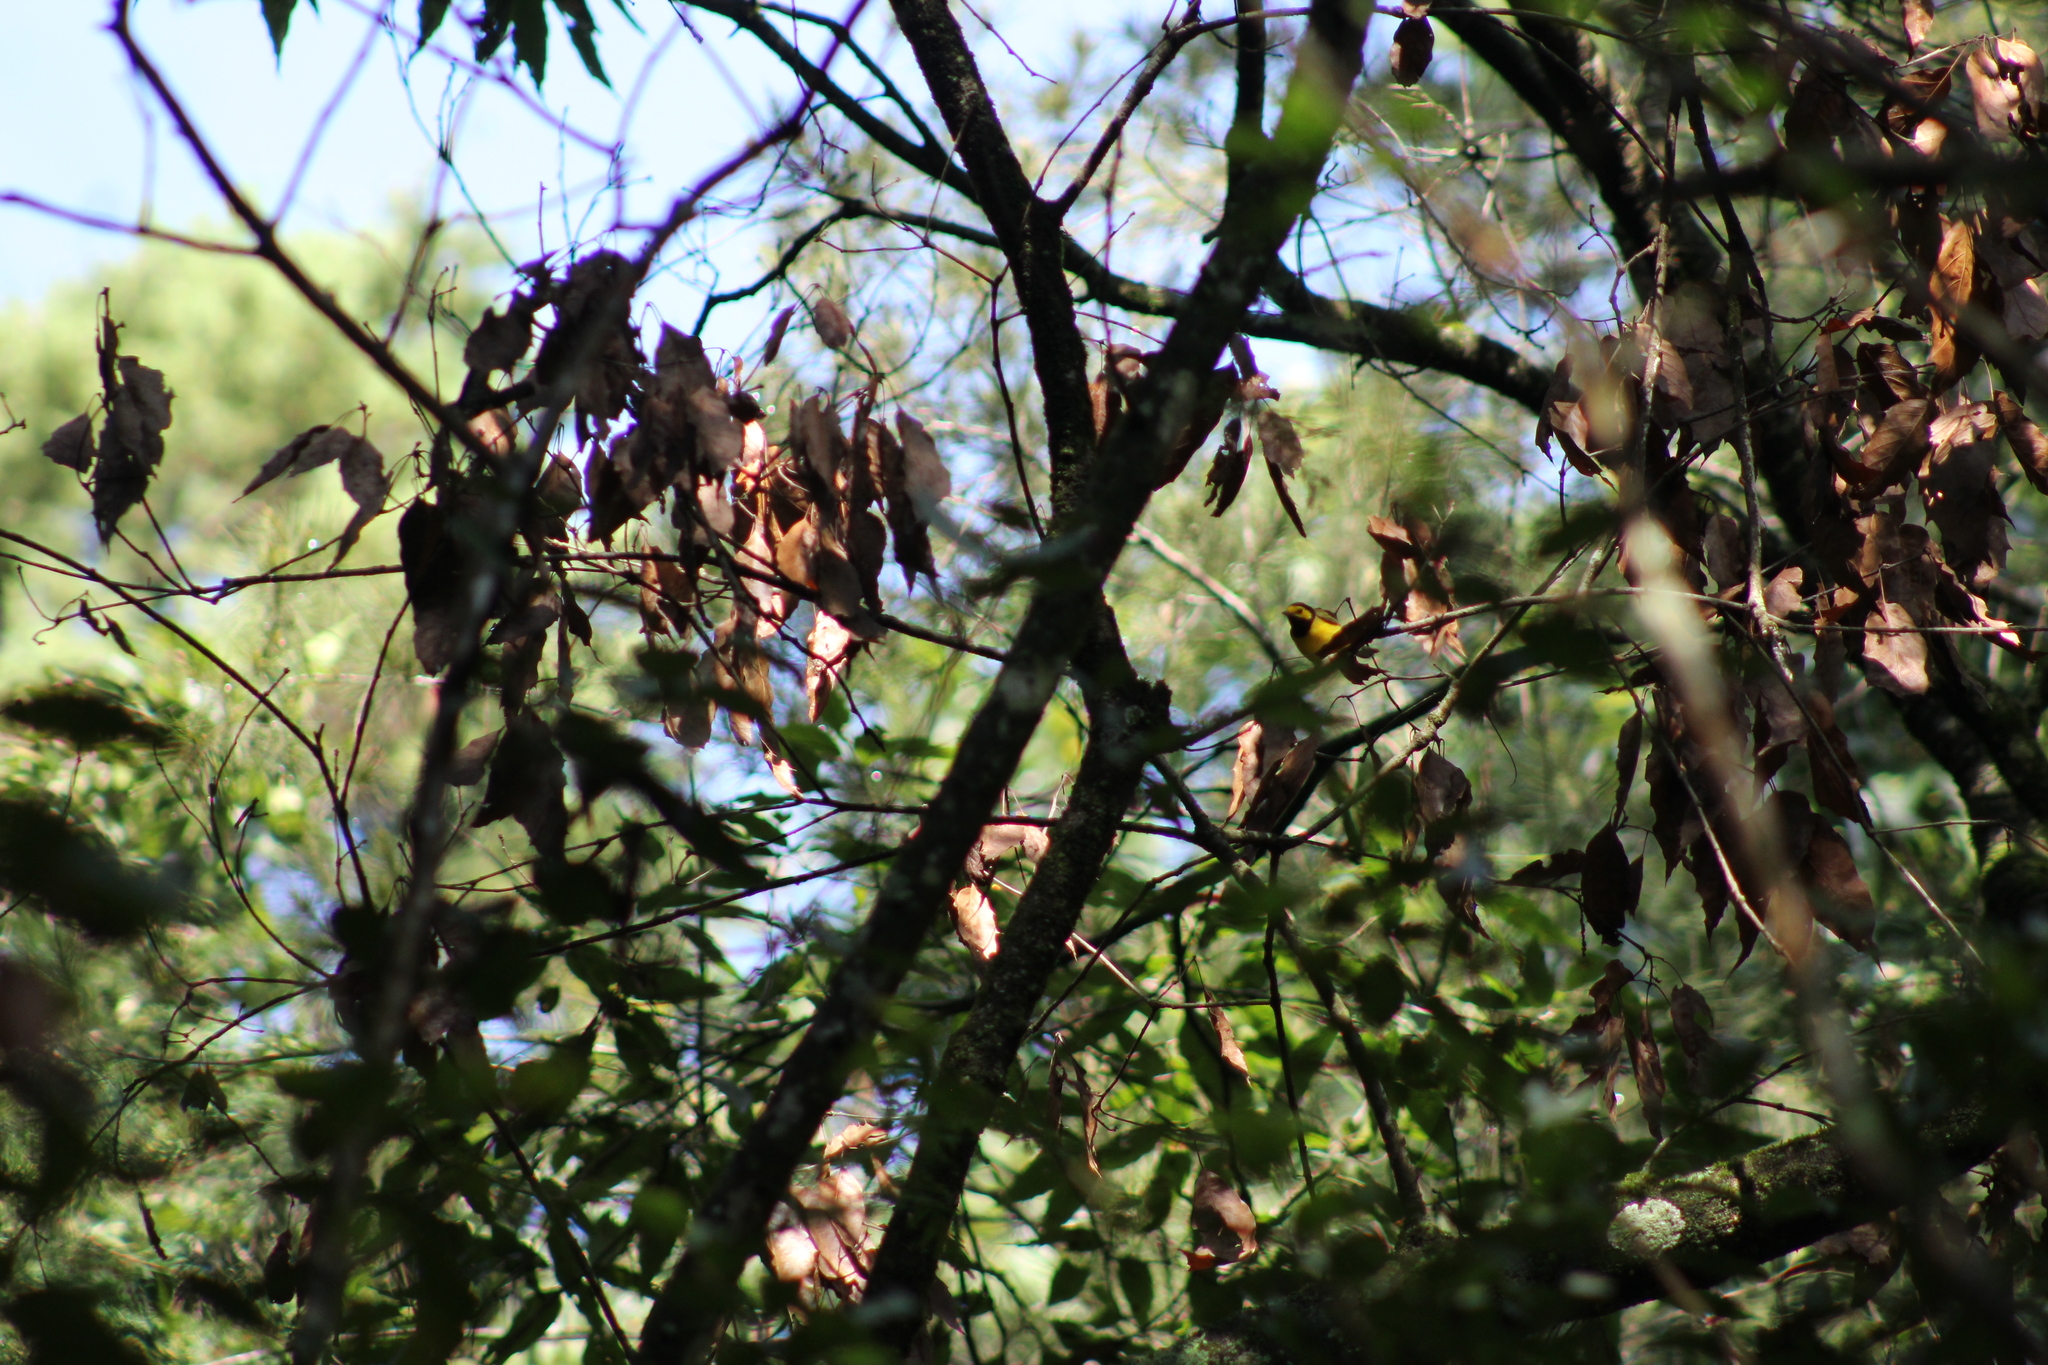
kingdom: Animalia
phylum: Chordata
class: Aves
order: Passeriformes
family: Parulidae
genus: Setophaga
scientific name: Setophaga citrina
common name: Hooded warbler
